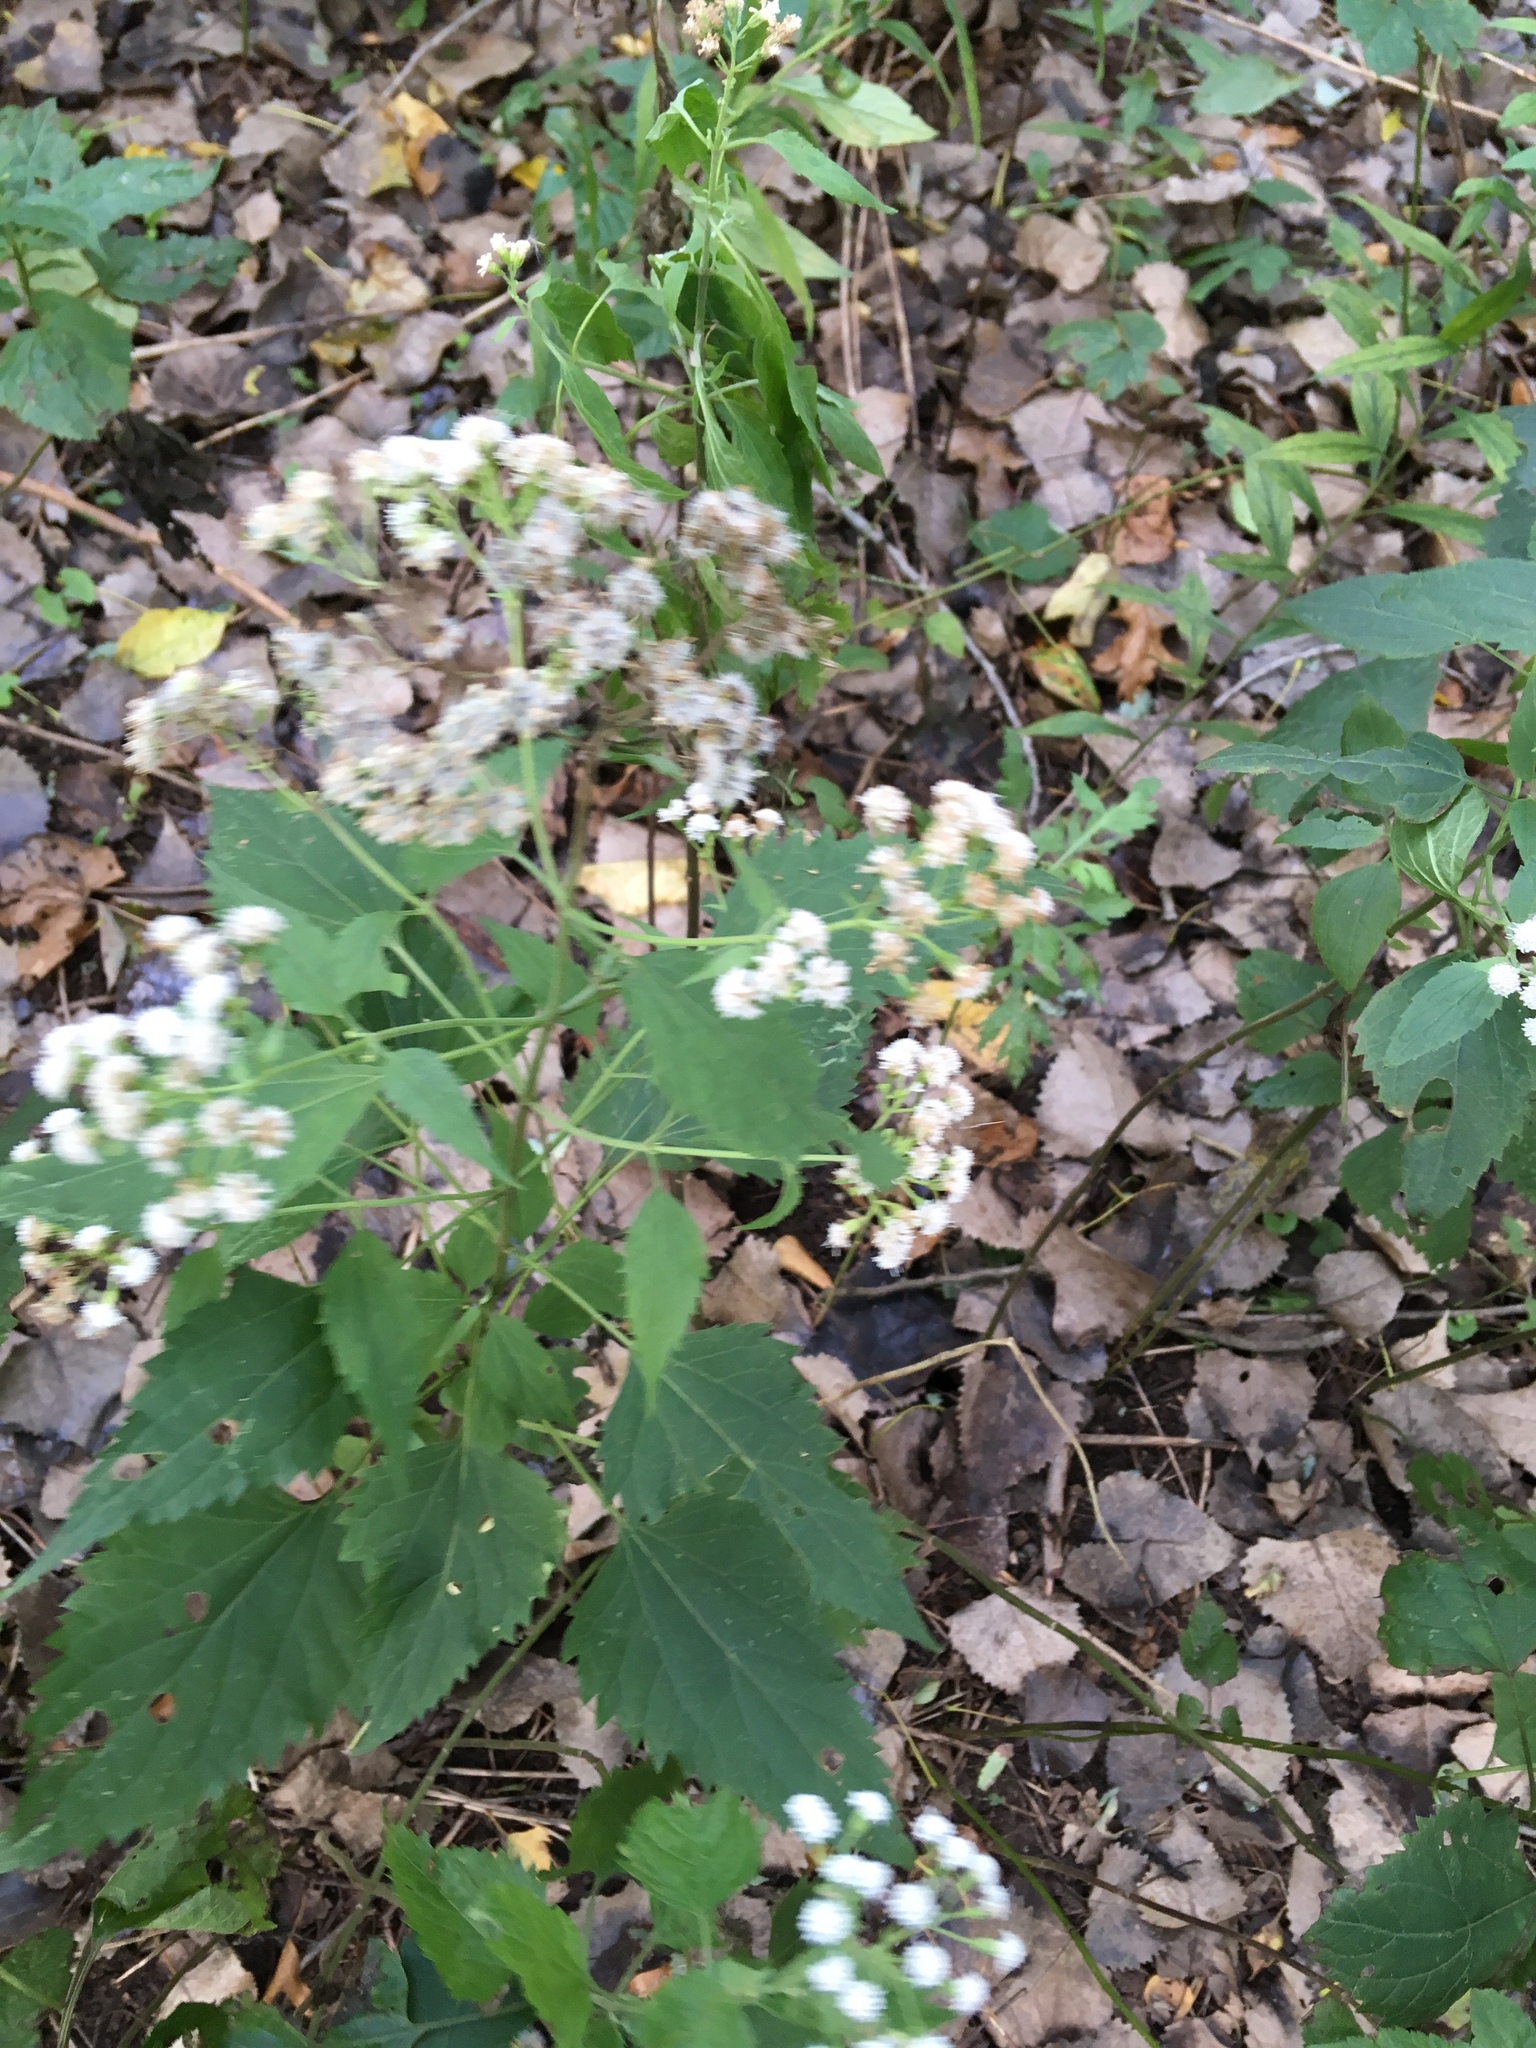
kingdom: Plantae
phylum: Tracheophyta
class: Magnoliopsida
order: Asterales
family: Asteraceae
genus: Ageratina
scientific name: Ageratina altissima
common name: White snakeroot
